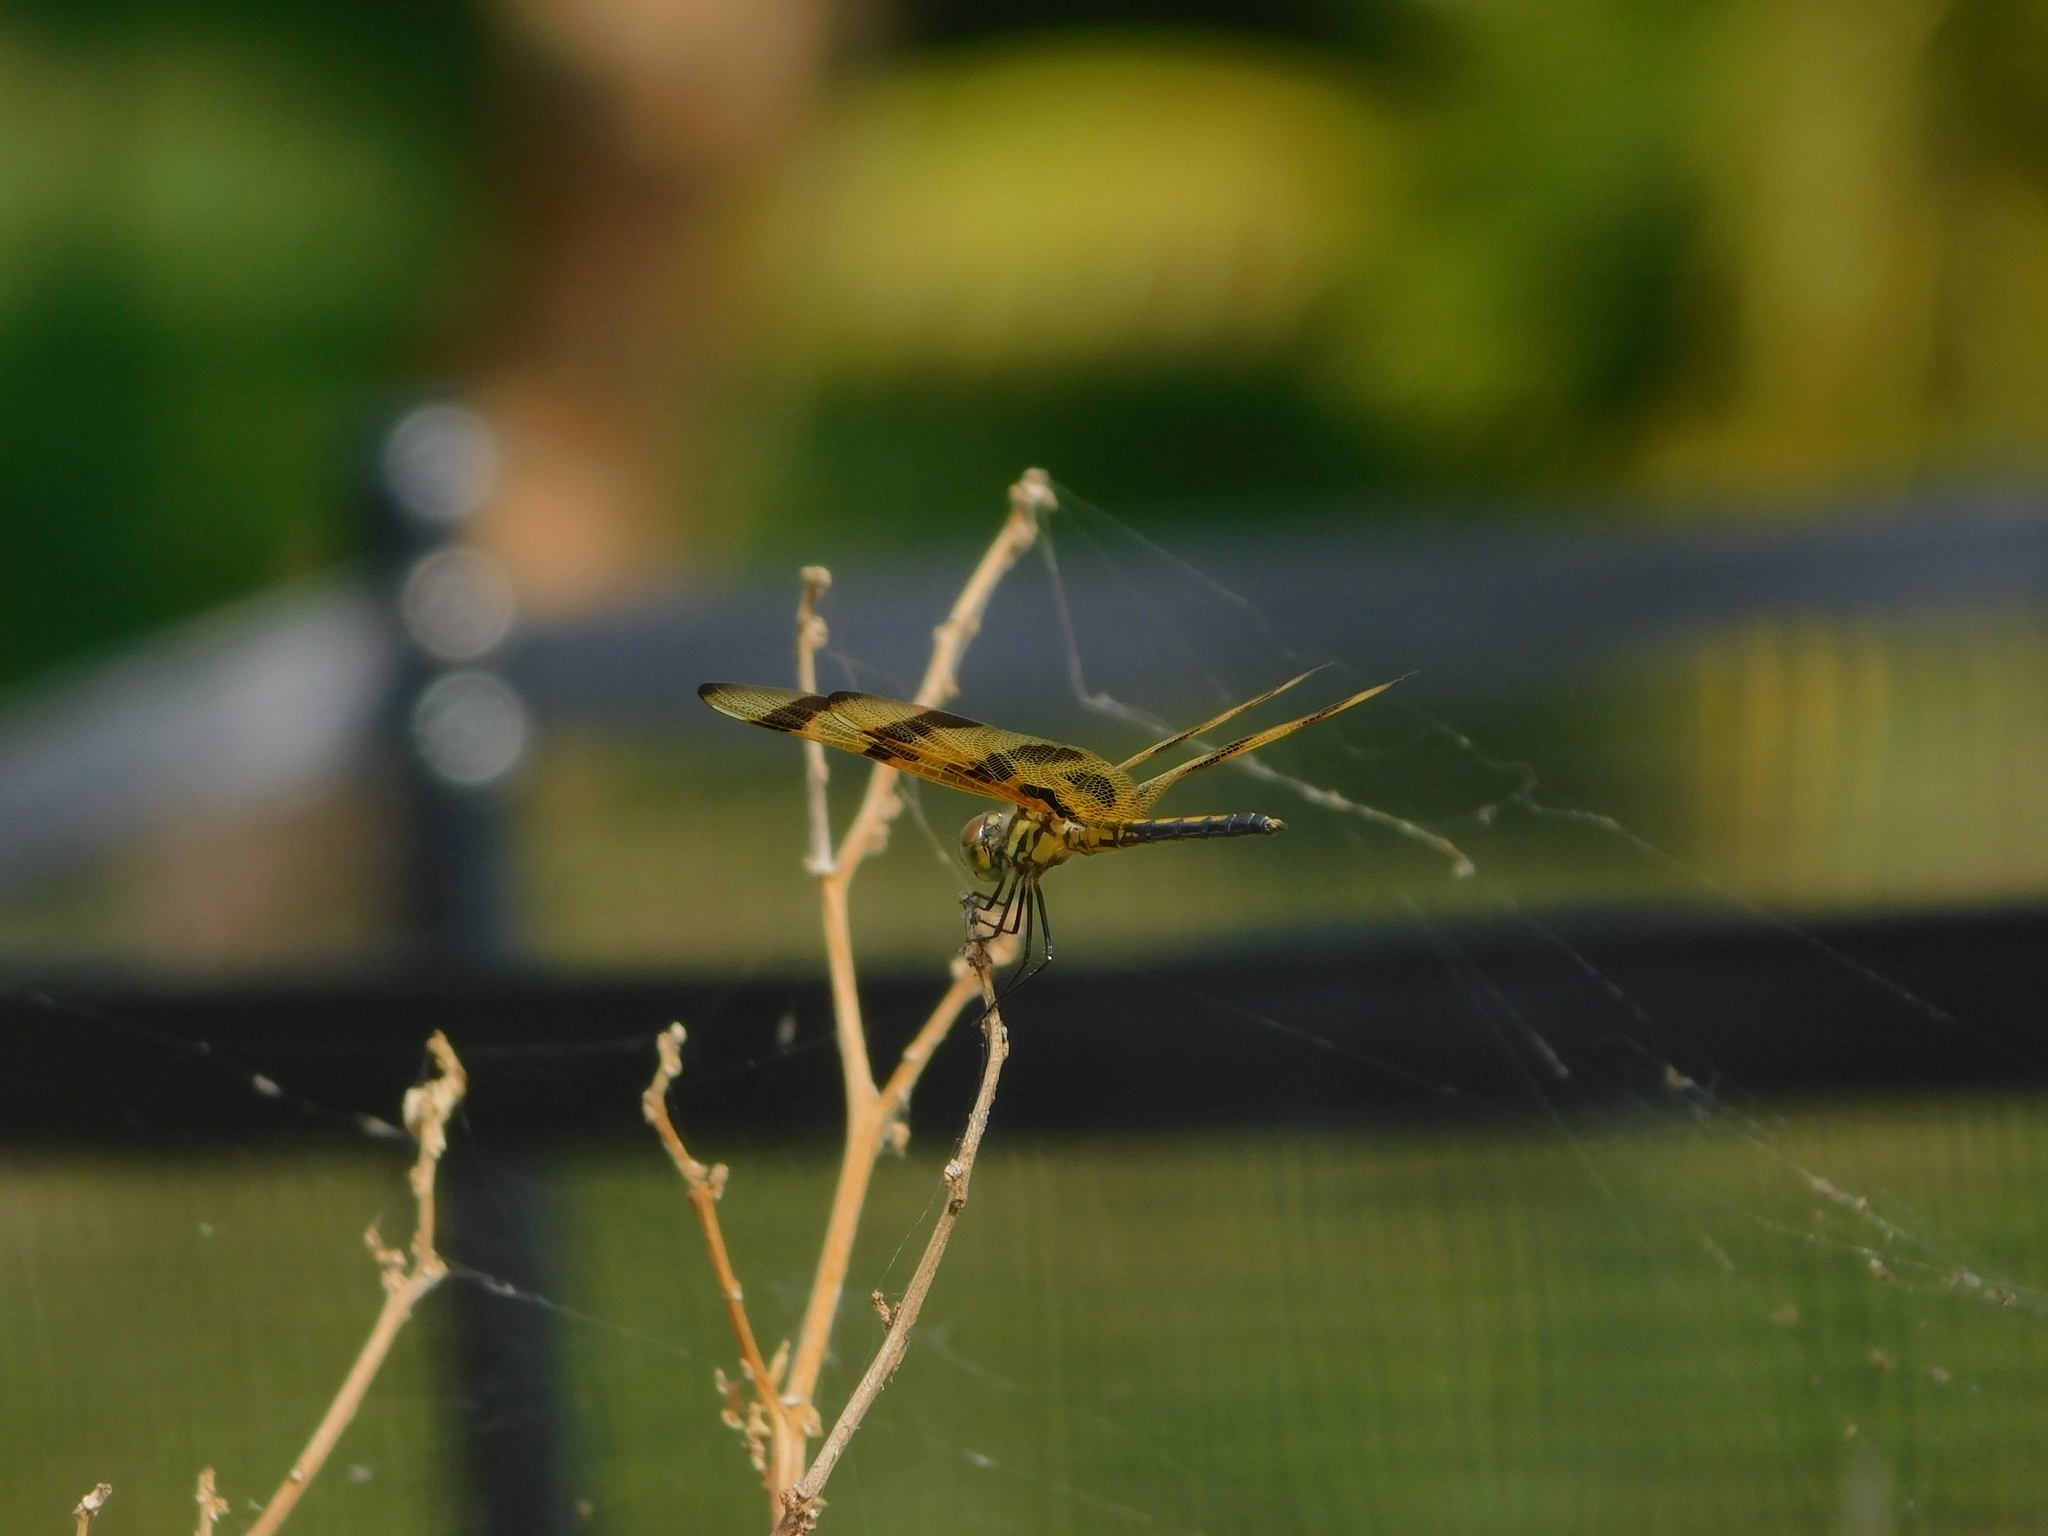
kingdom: Animalia
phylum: Arthropoda
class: Insecta
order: Odonata
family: Libellulidae
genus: Celithemis
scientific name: Celithemis eponina
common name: Halloween pennant
